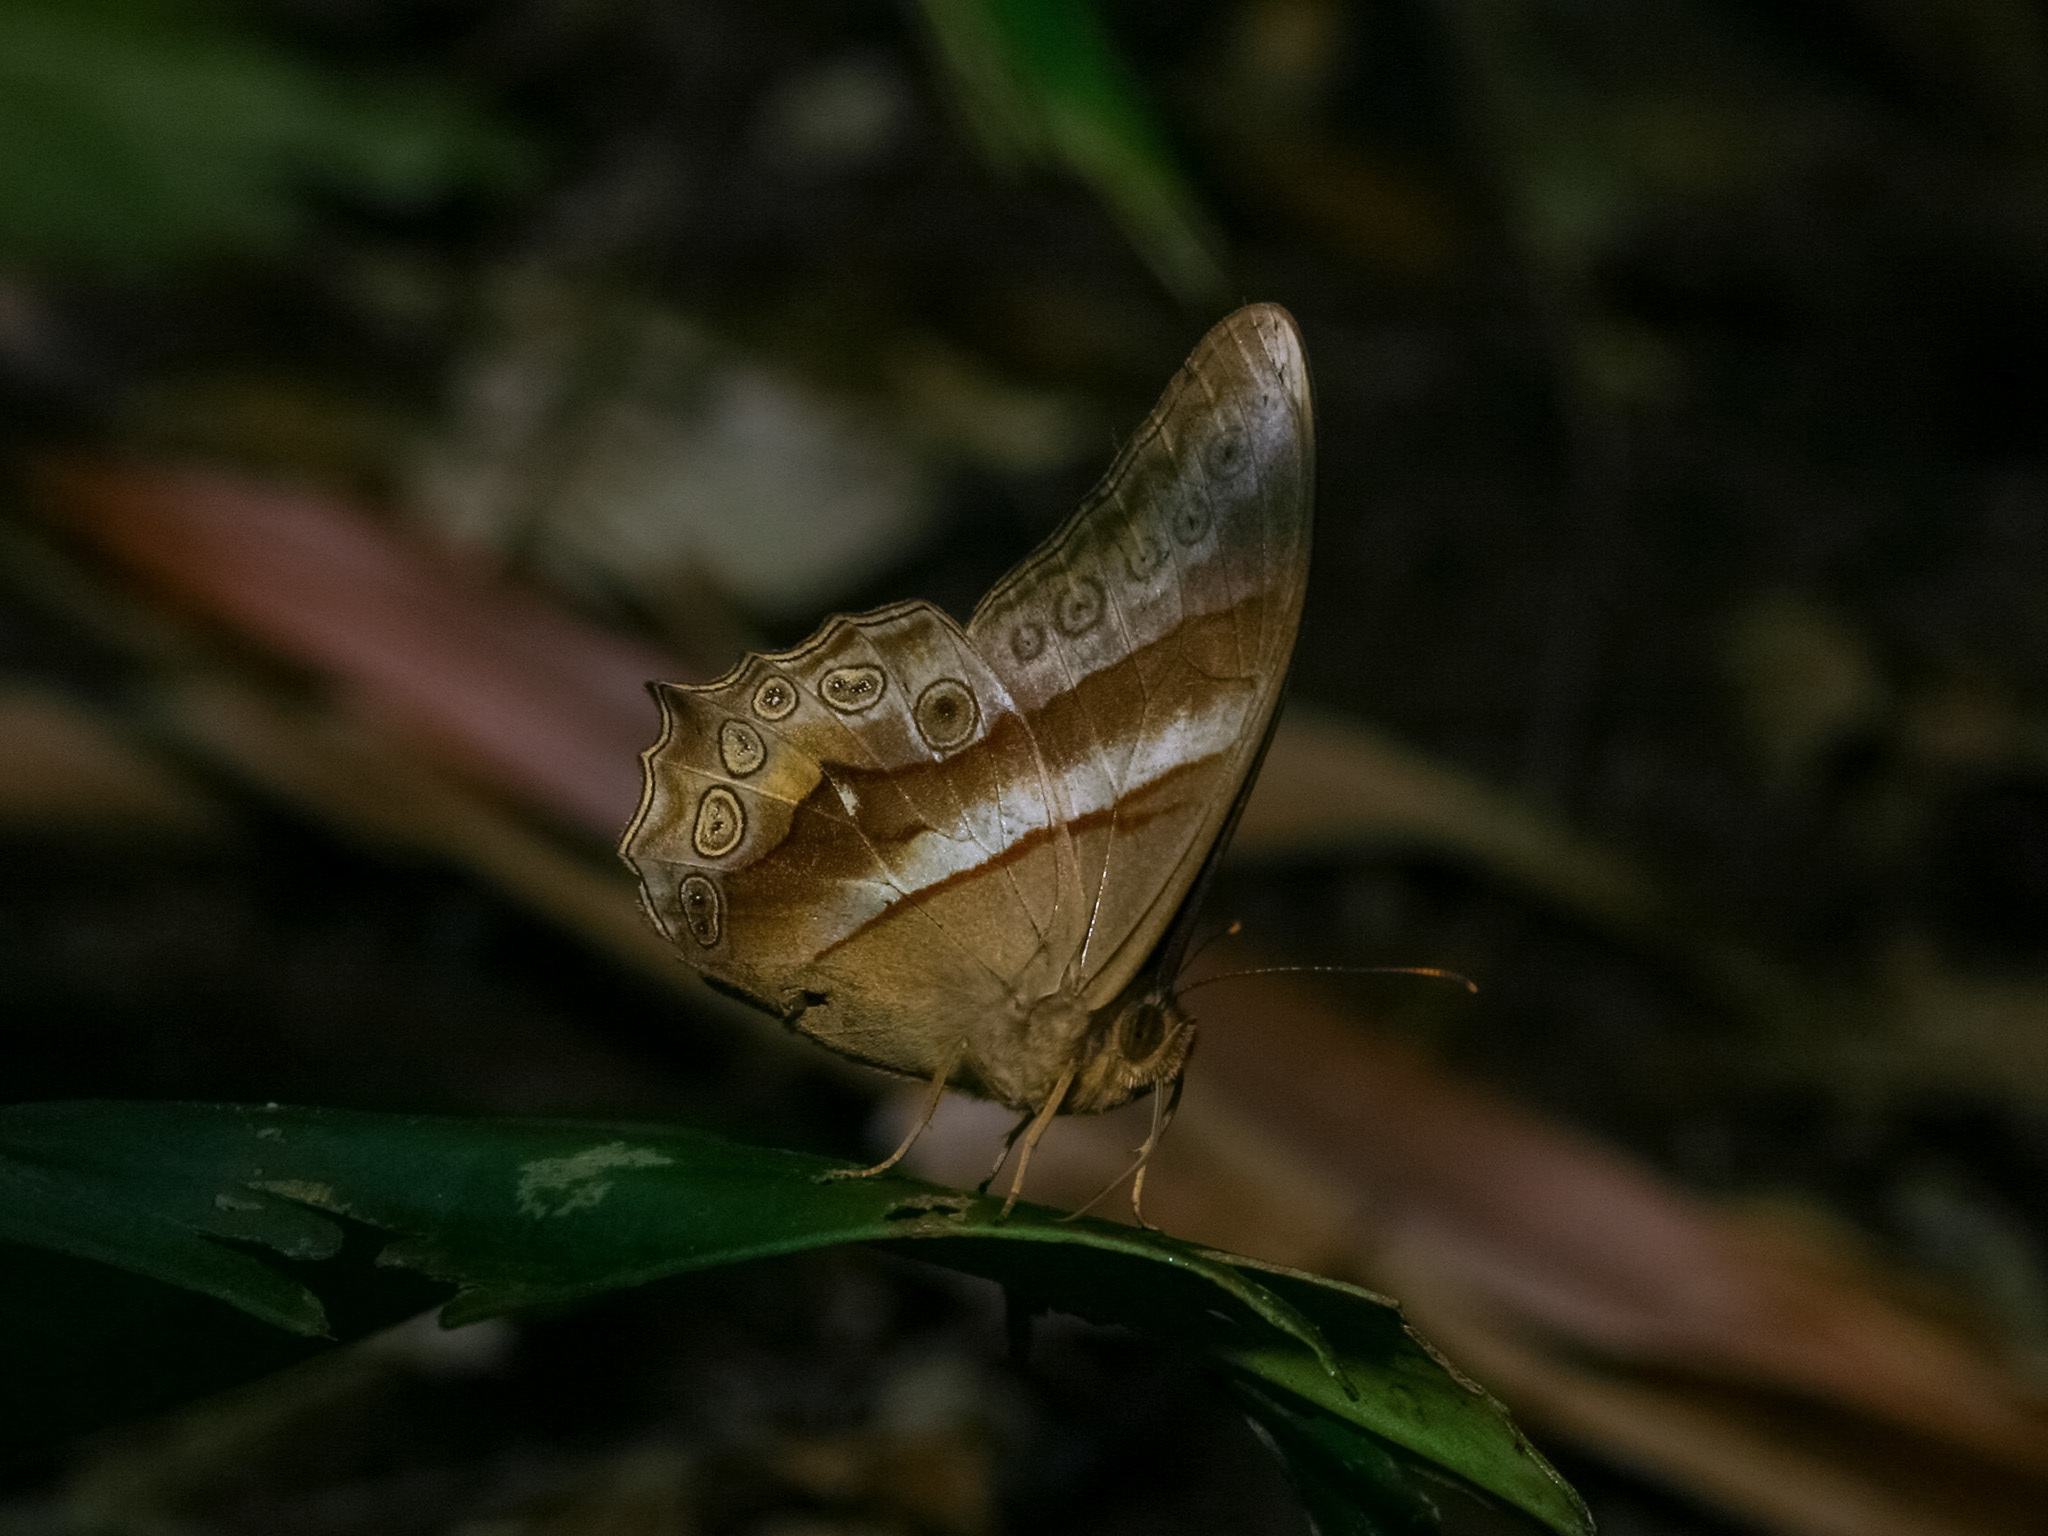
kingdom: Animalia
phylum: Arthropoda
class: Insecta
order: Lepidoptera
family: Nymphalidae
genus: Lethe
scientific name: Lethe mekara
